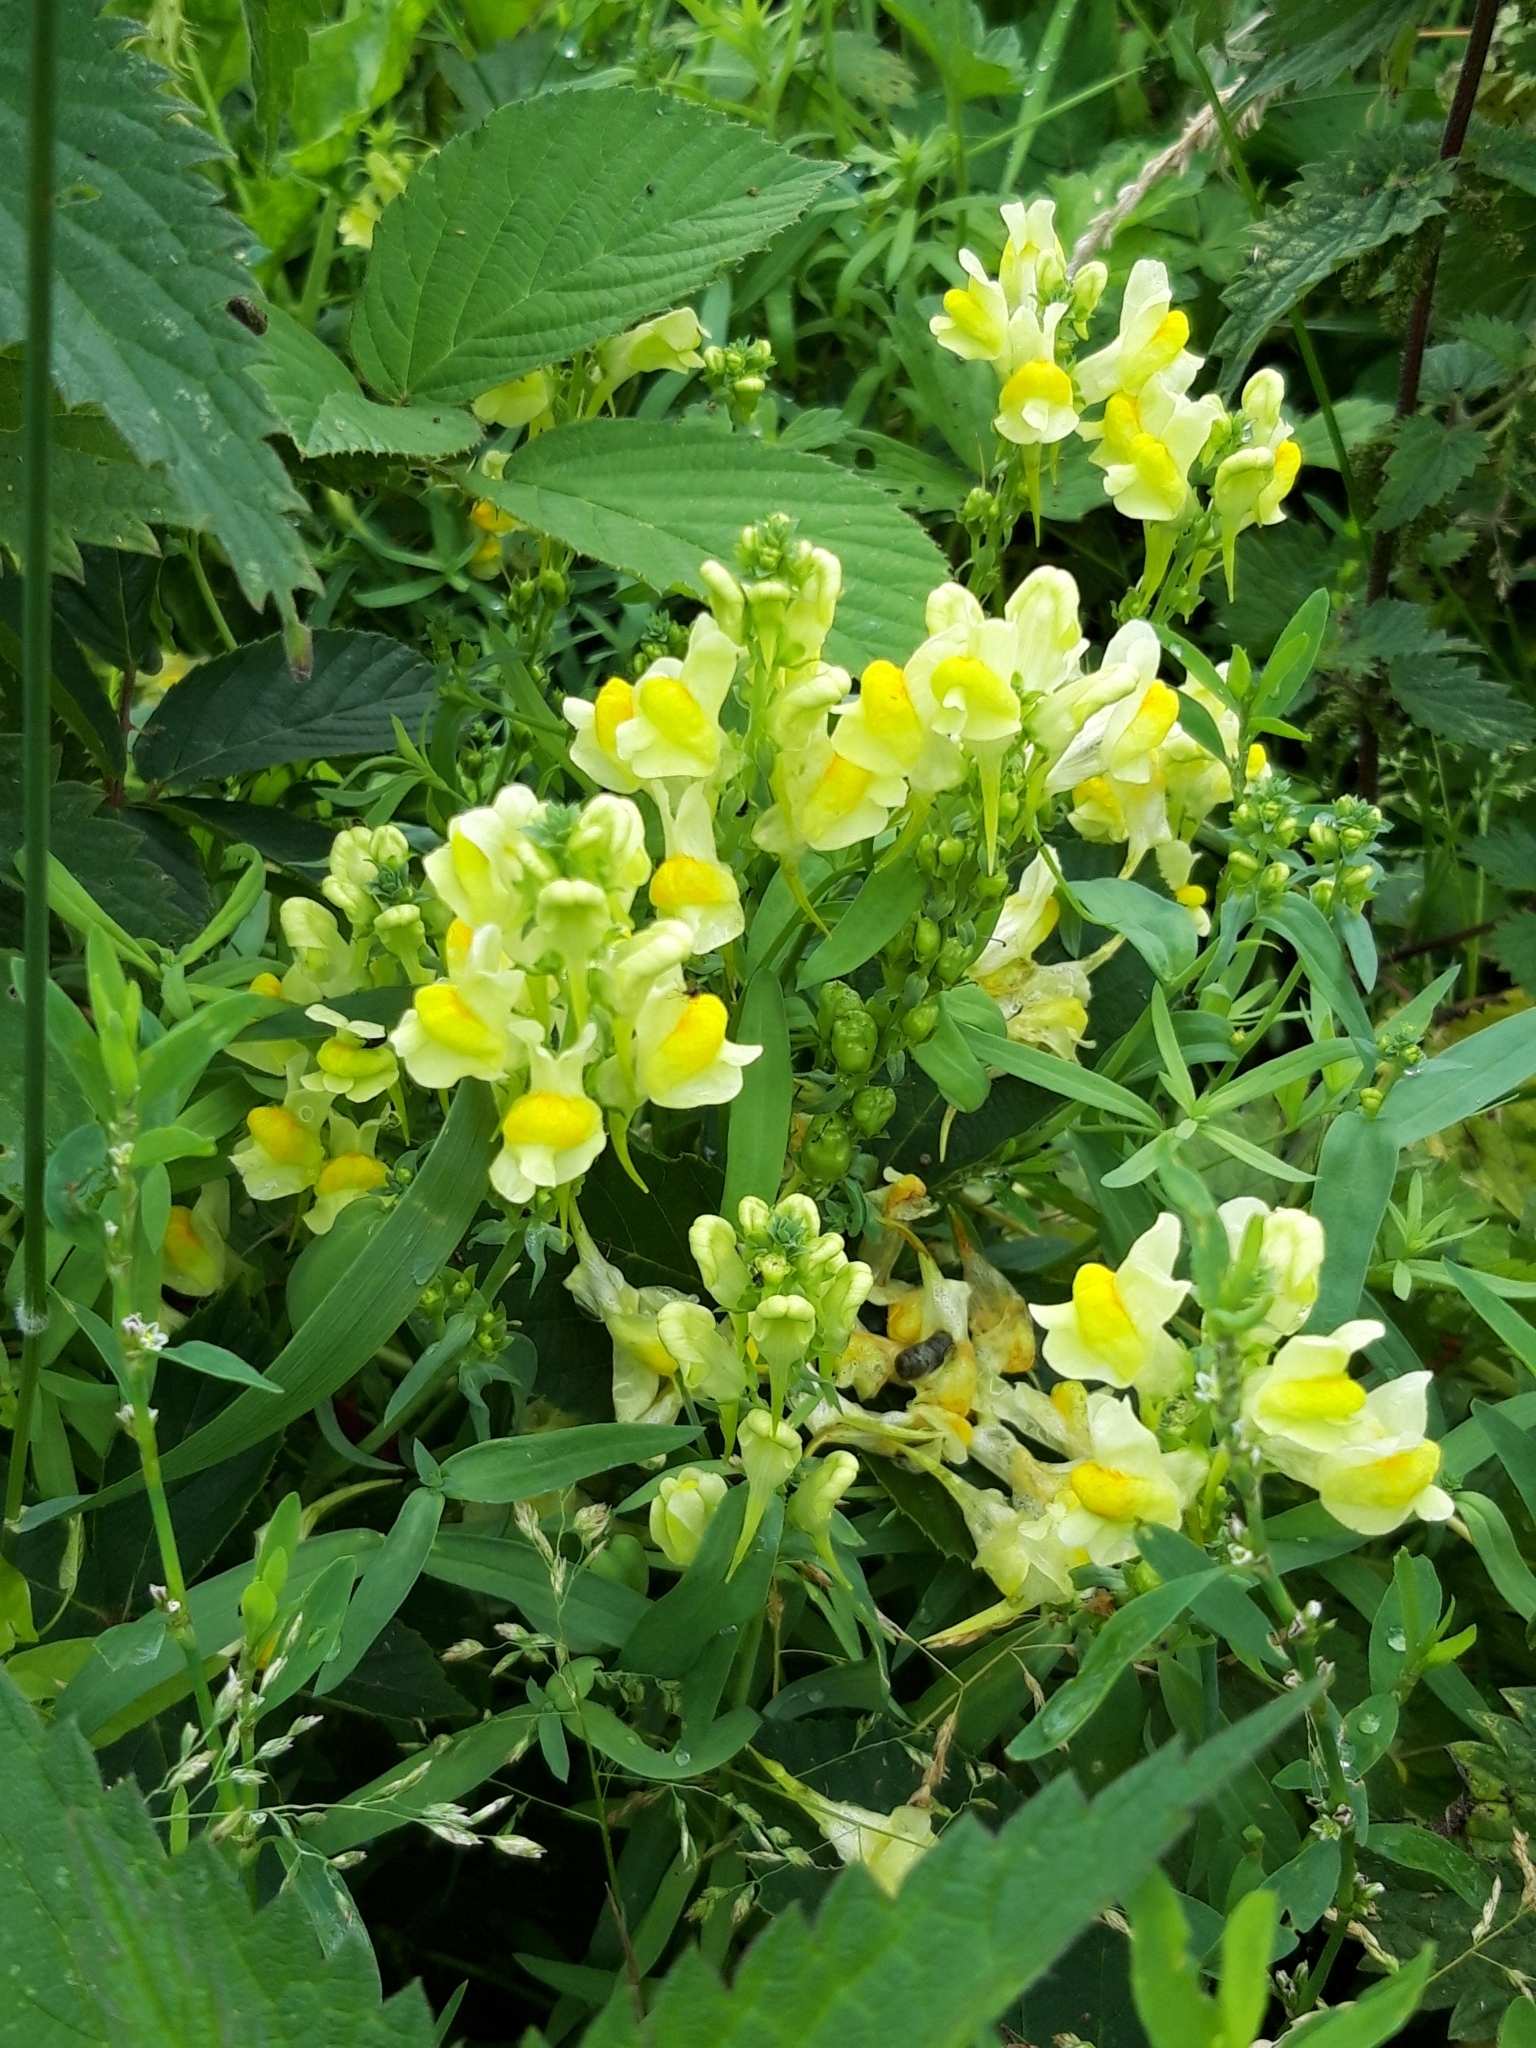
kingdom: Plantae
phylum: Tracheophyta
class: Magnoliopsida
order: Lamiales
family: Plantaginaceae
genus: Linaria
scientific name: Linaria vulgaris
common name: Butter and eggs
